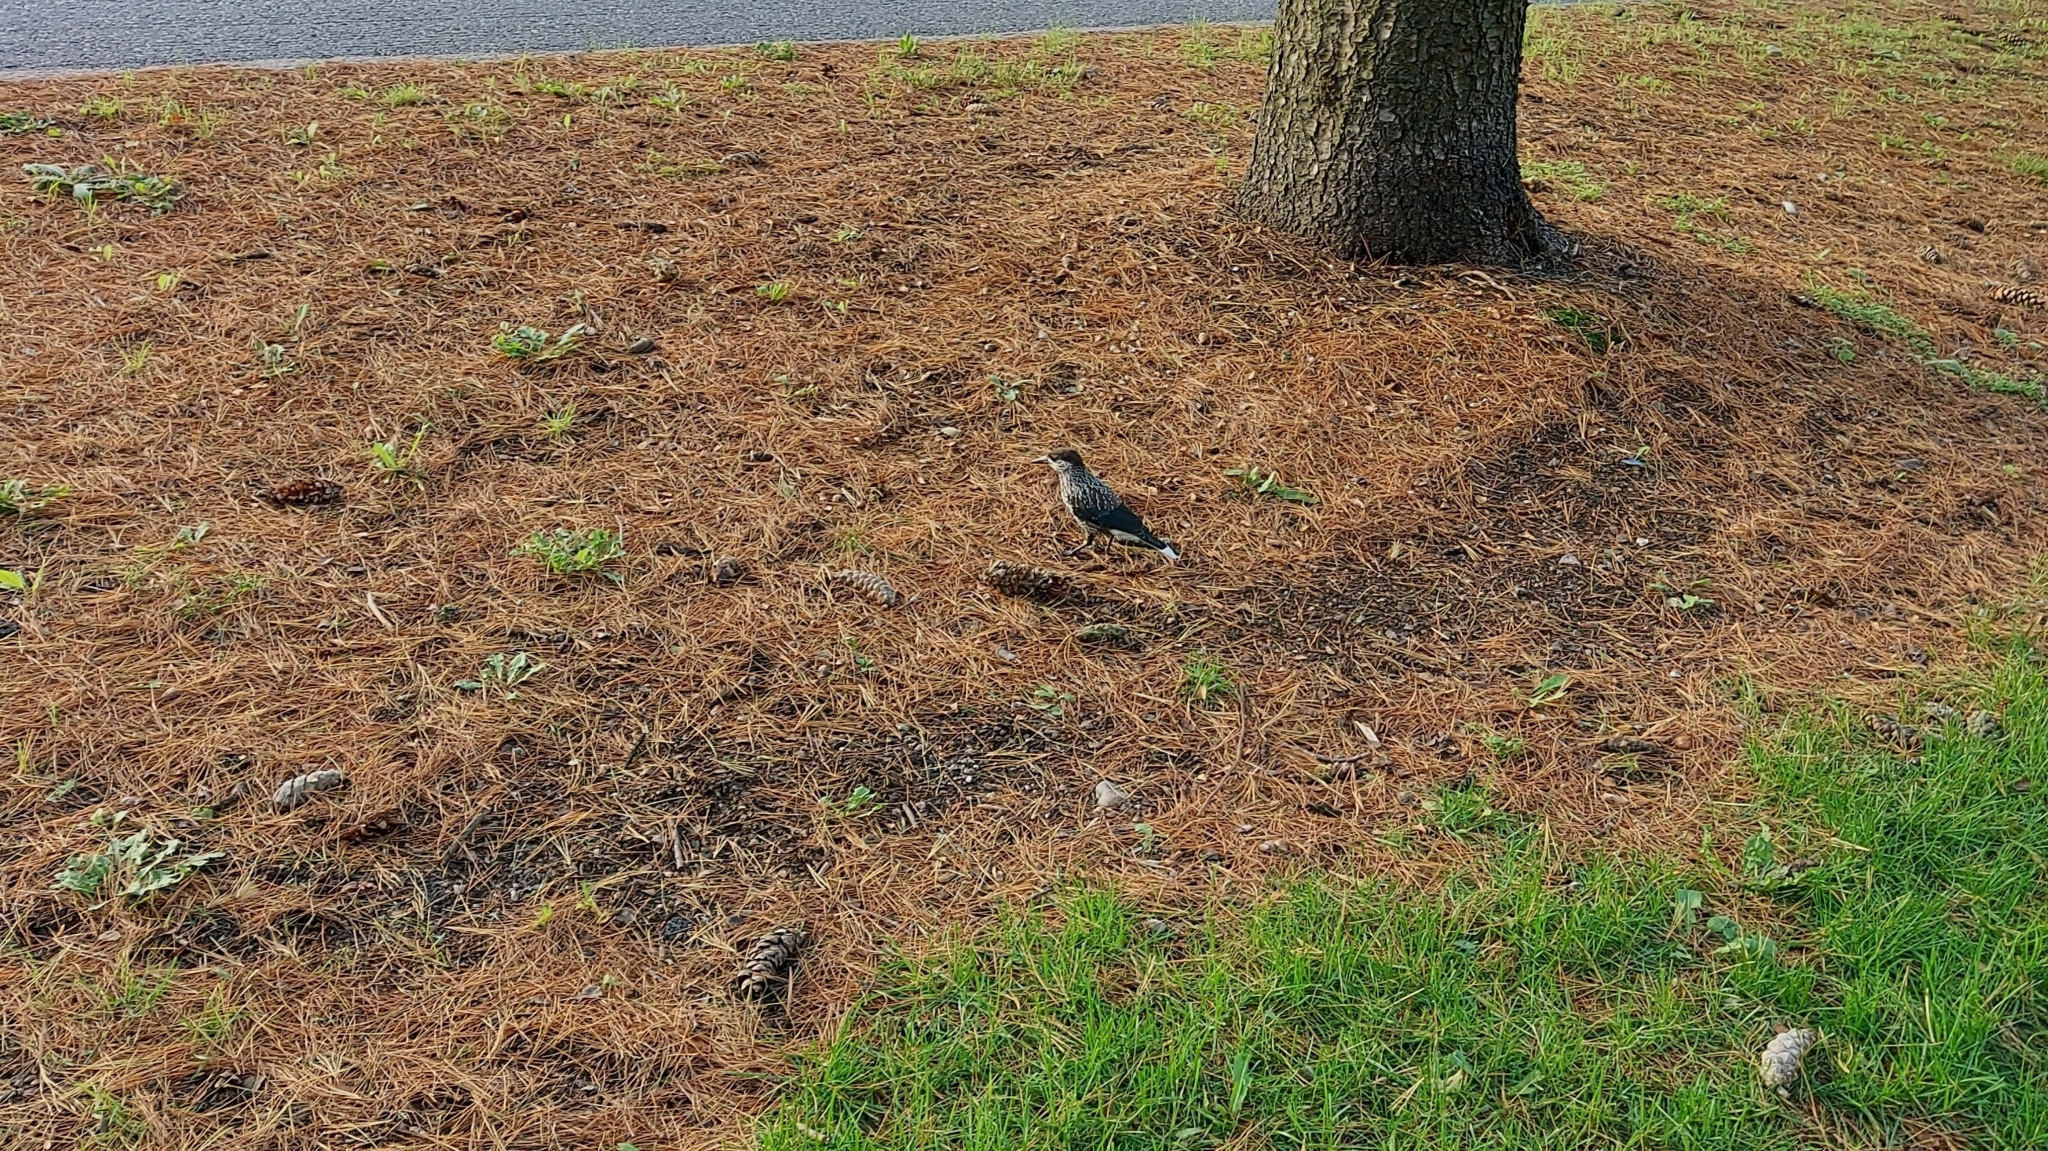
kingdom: Animalia
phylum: Chordata
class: Aves
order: Passeriformes
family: Corvidae
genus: Nucifraga
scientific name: Nucifraga caryocatactes
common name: Spotted nutcracker
